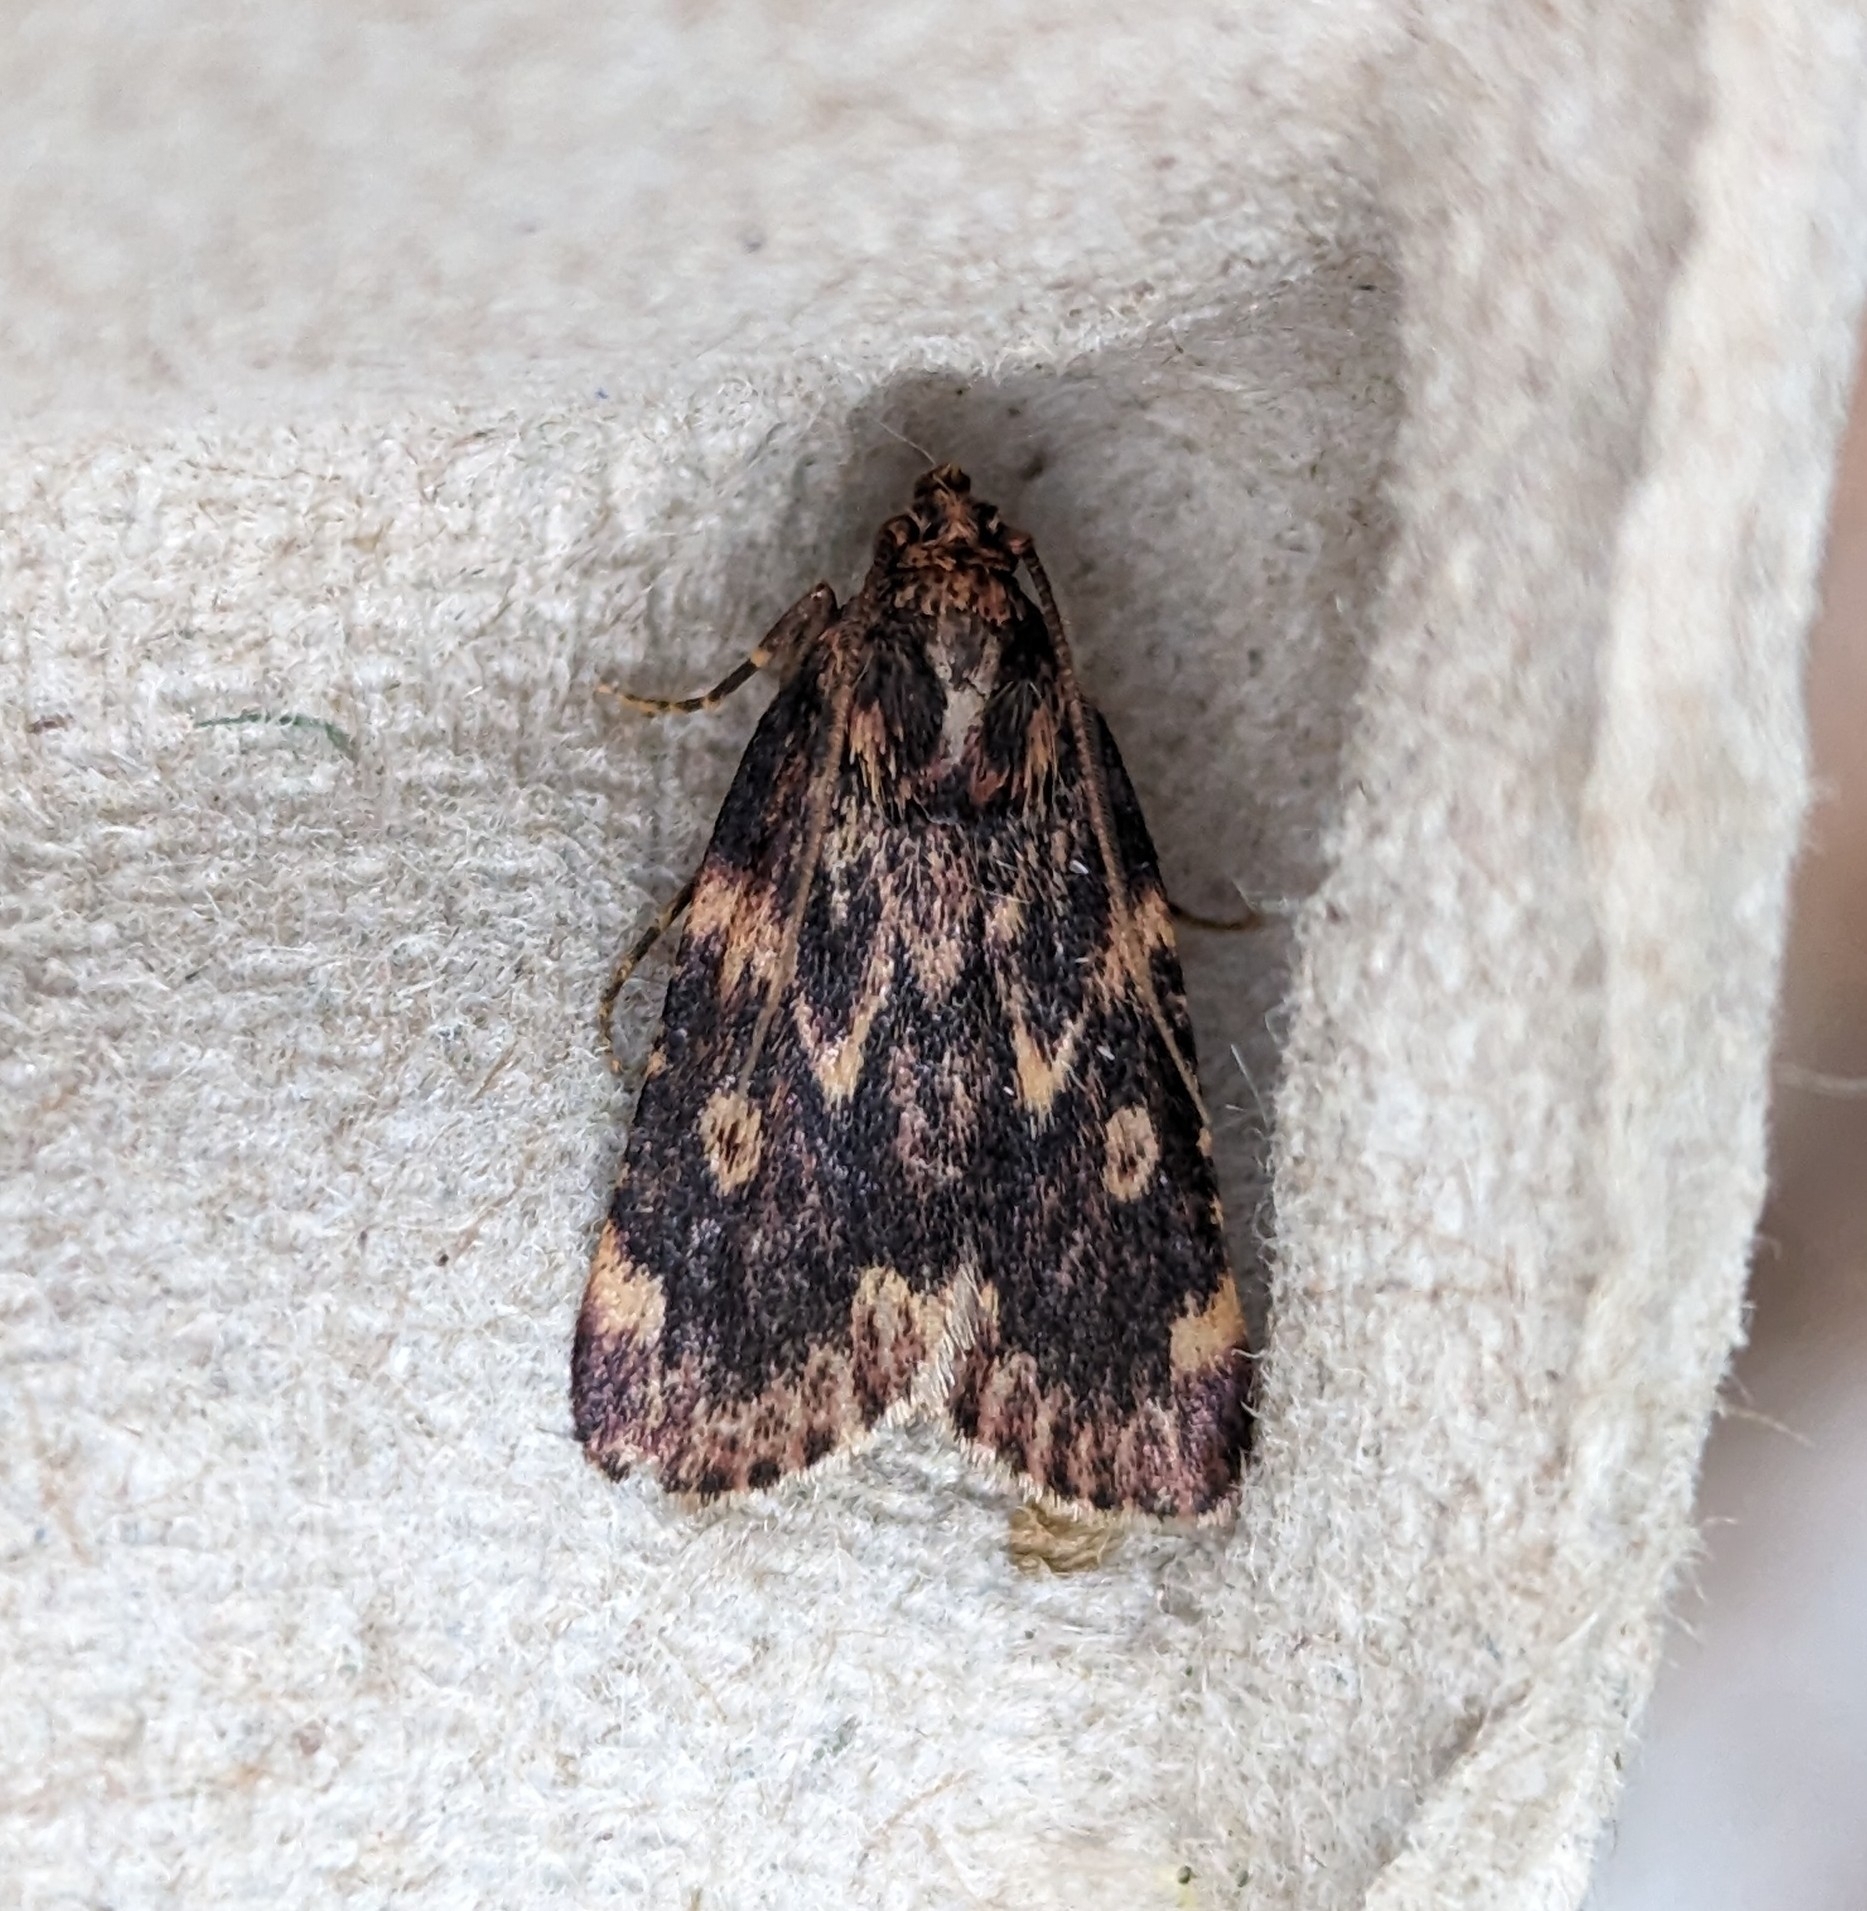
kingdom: Animalia
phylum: Arthropoda
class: Insecta
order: Lepidoptera
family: Pyralidae
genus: Aglossa
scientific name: Aglossa cuprina
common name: Grease moth
